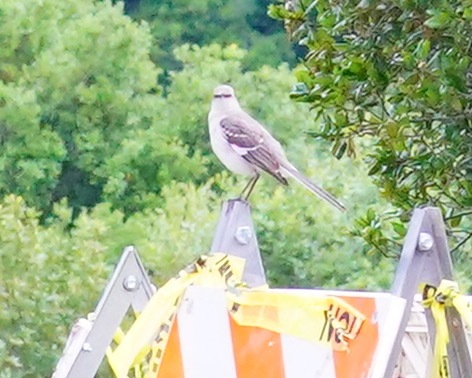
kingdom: Animalia
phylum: Chordata
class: Aves
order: Passeriformes
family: Mimidae
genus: Mimus
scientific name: Mimus polyglottos
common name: Northern mockingbird
